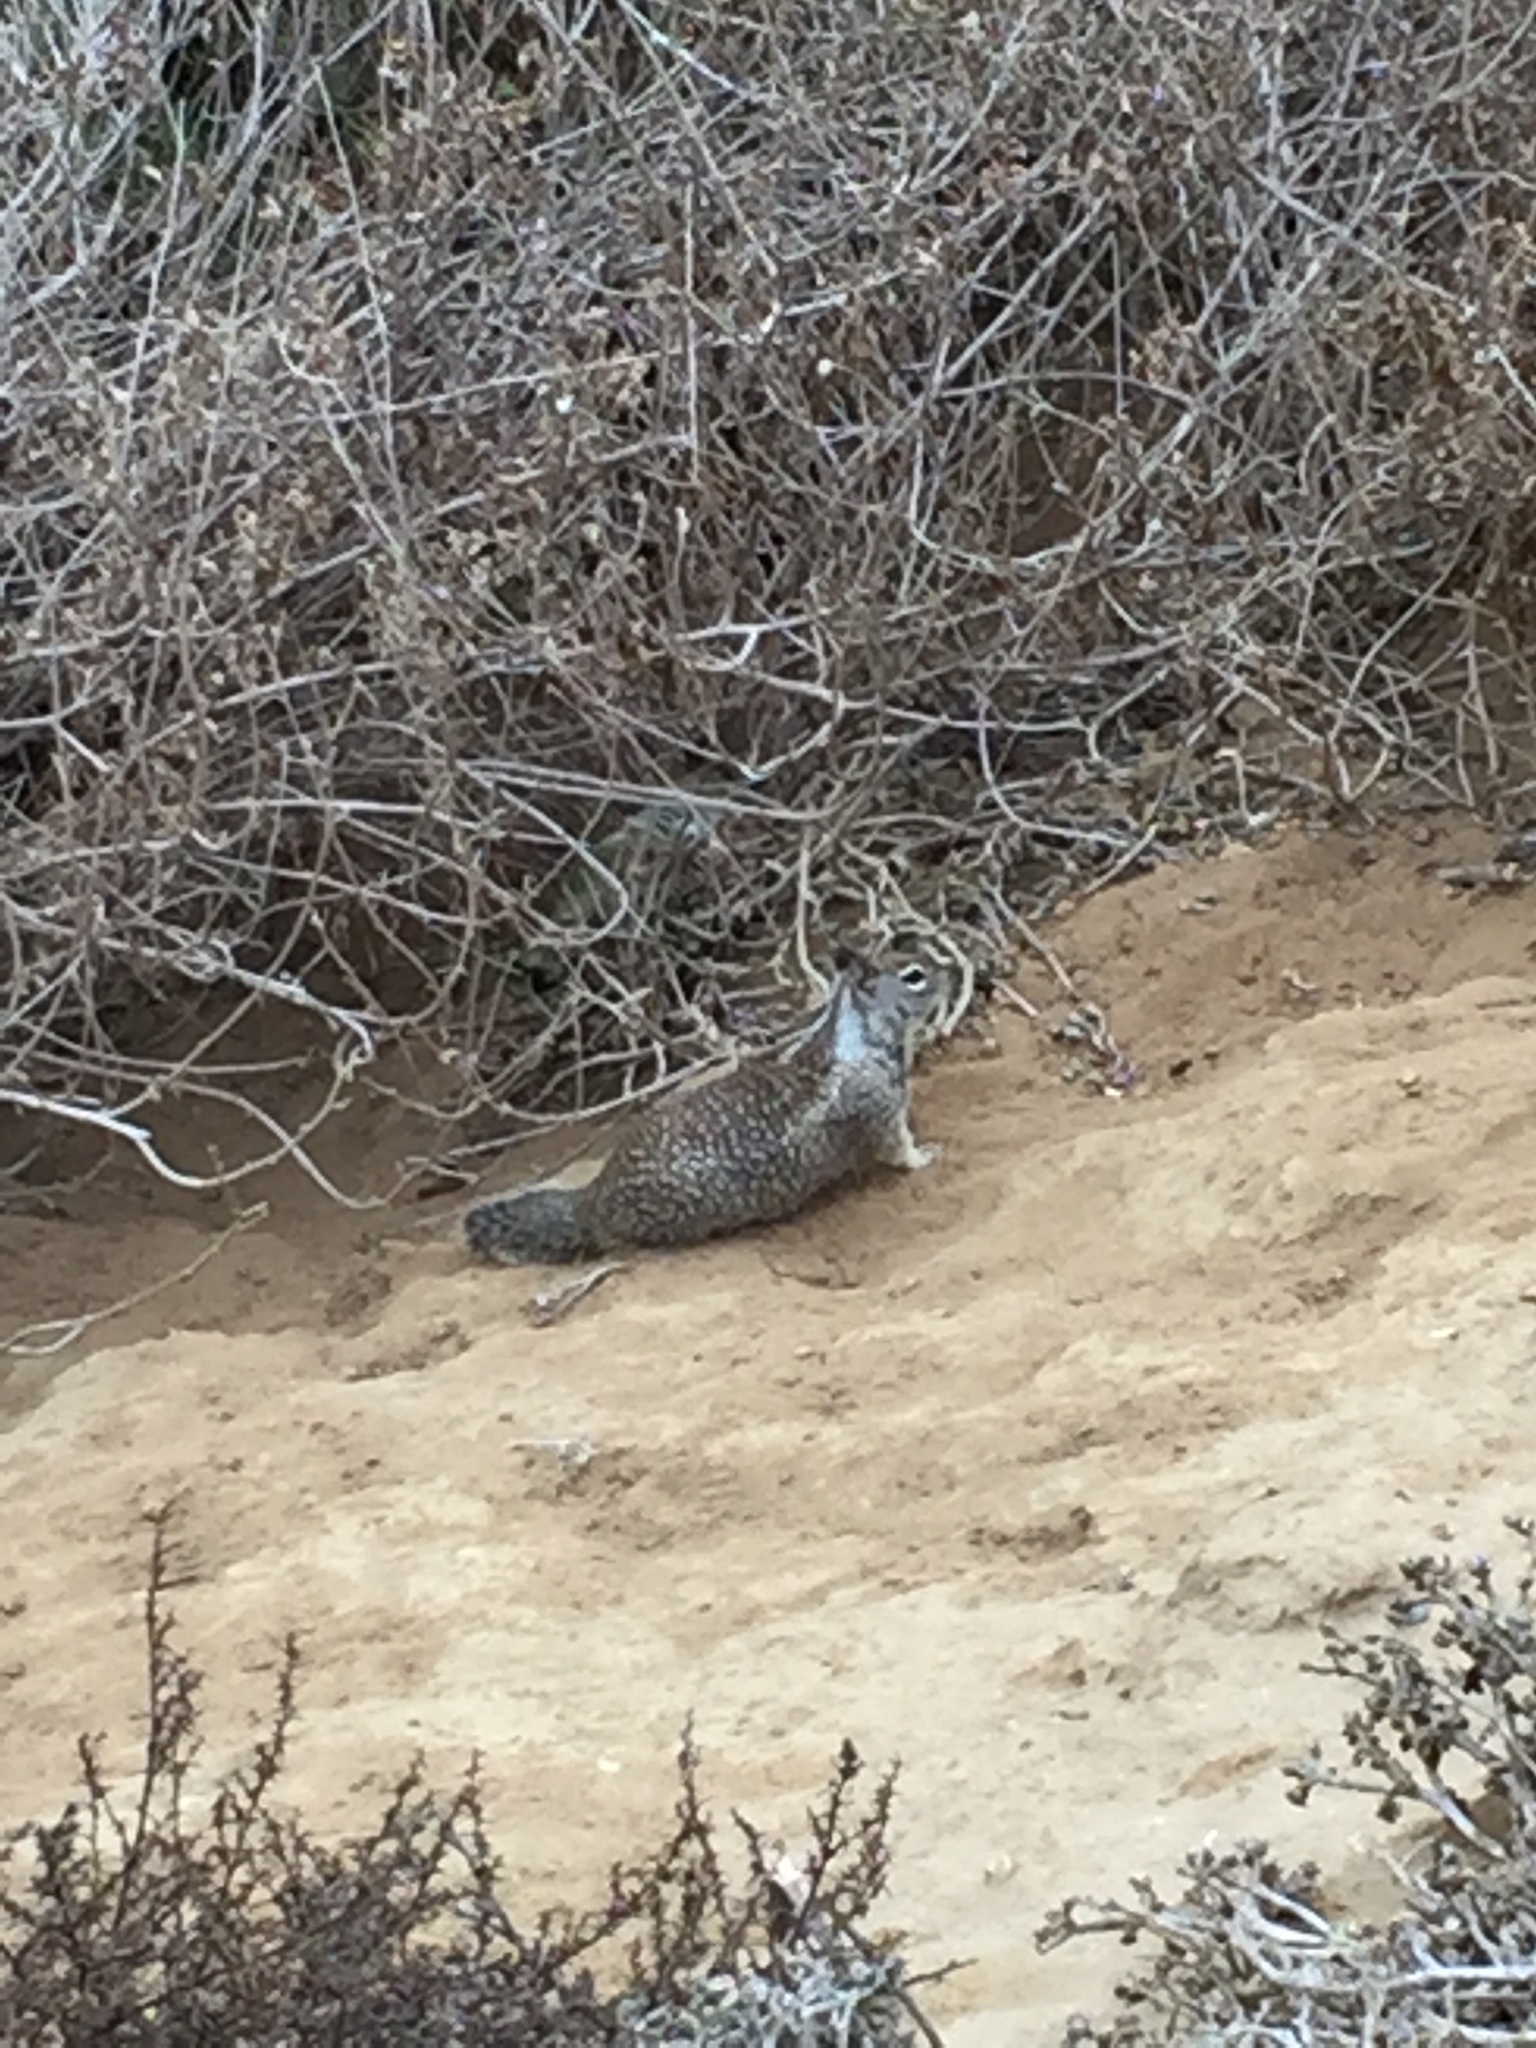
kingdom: Animalia
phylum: Chordata
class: Mammalia
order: Rodentia
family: Sciuridae
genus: Otospermophilus
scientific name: Otospermophilus beecheyi
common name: California ground squirrel
